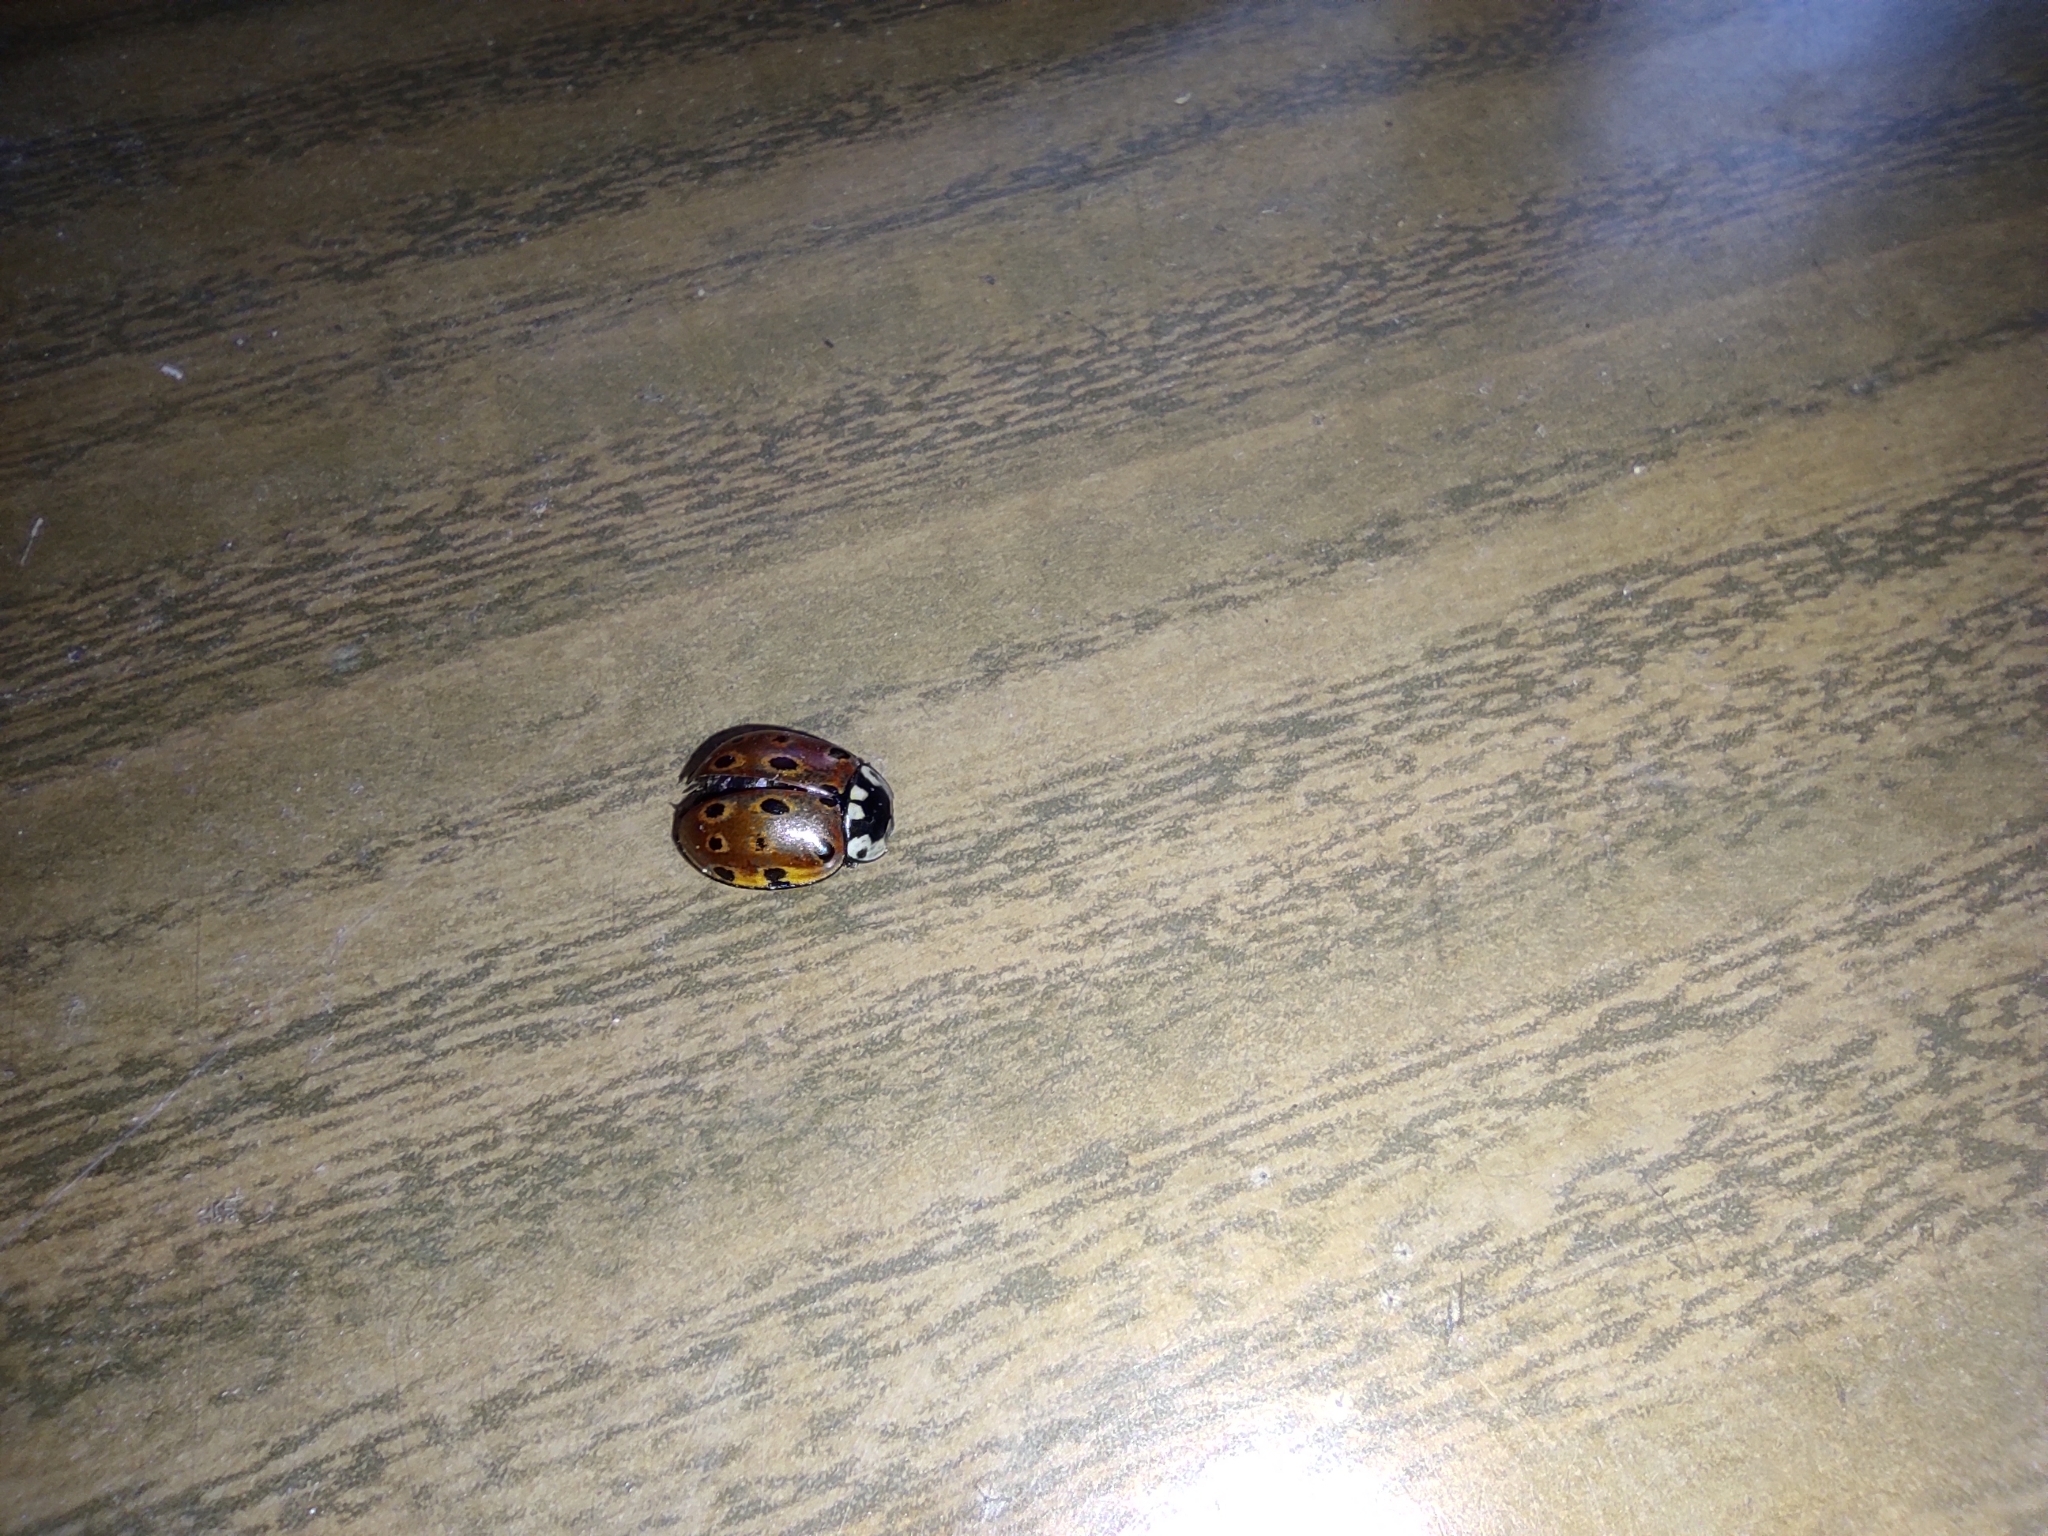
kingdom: Animalia
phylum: Arthropoda
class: Insecta
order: Coleoptera
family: Coccinellidae
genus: Anatis
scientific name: Anatis ocellata
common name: Eyed ladybird
